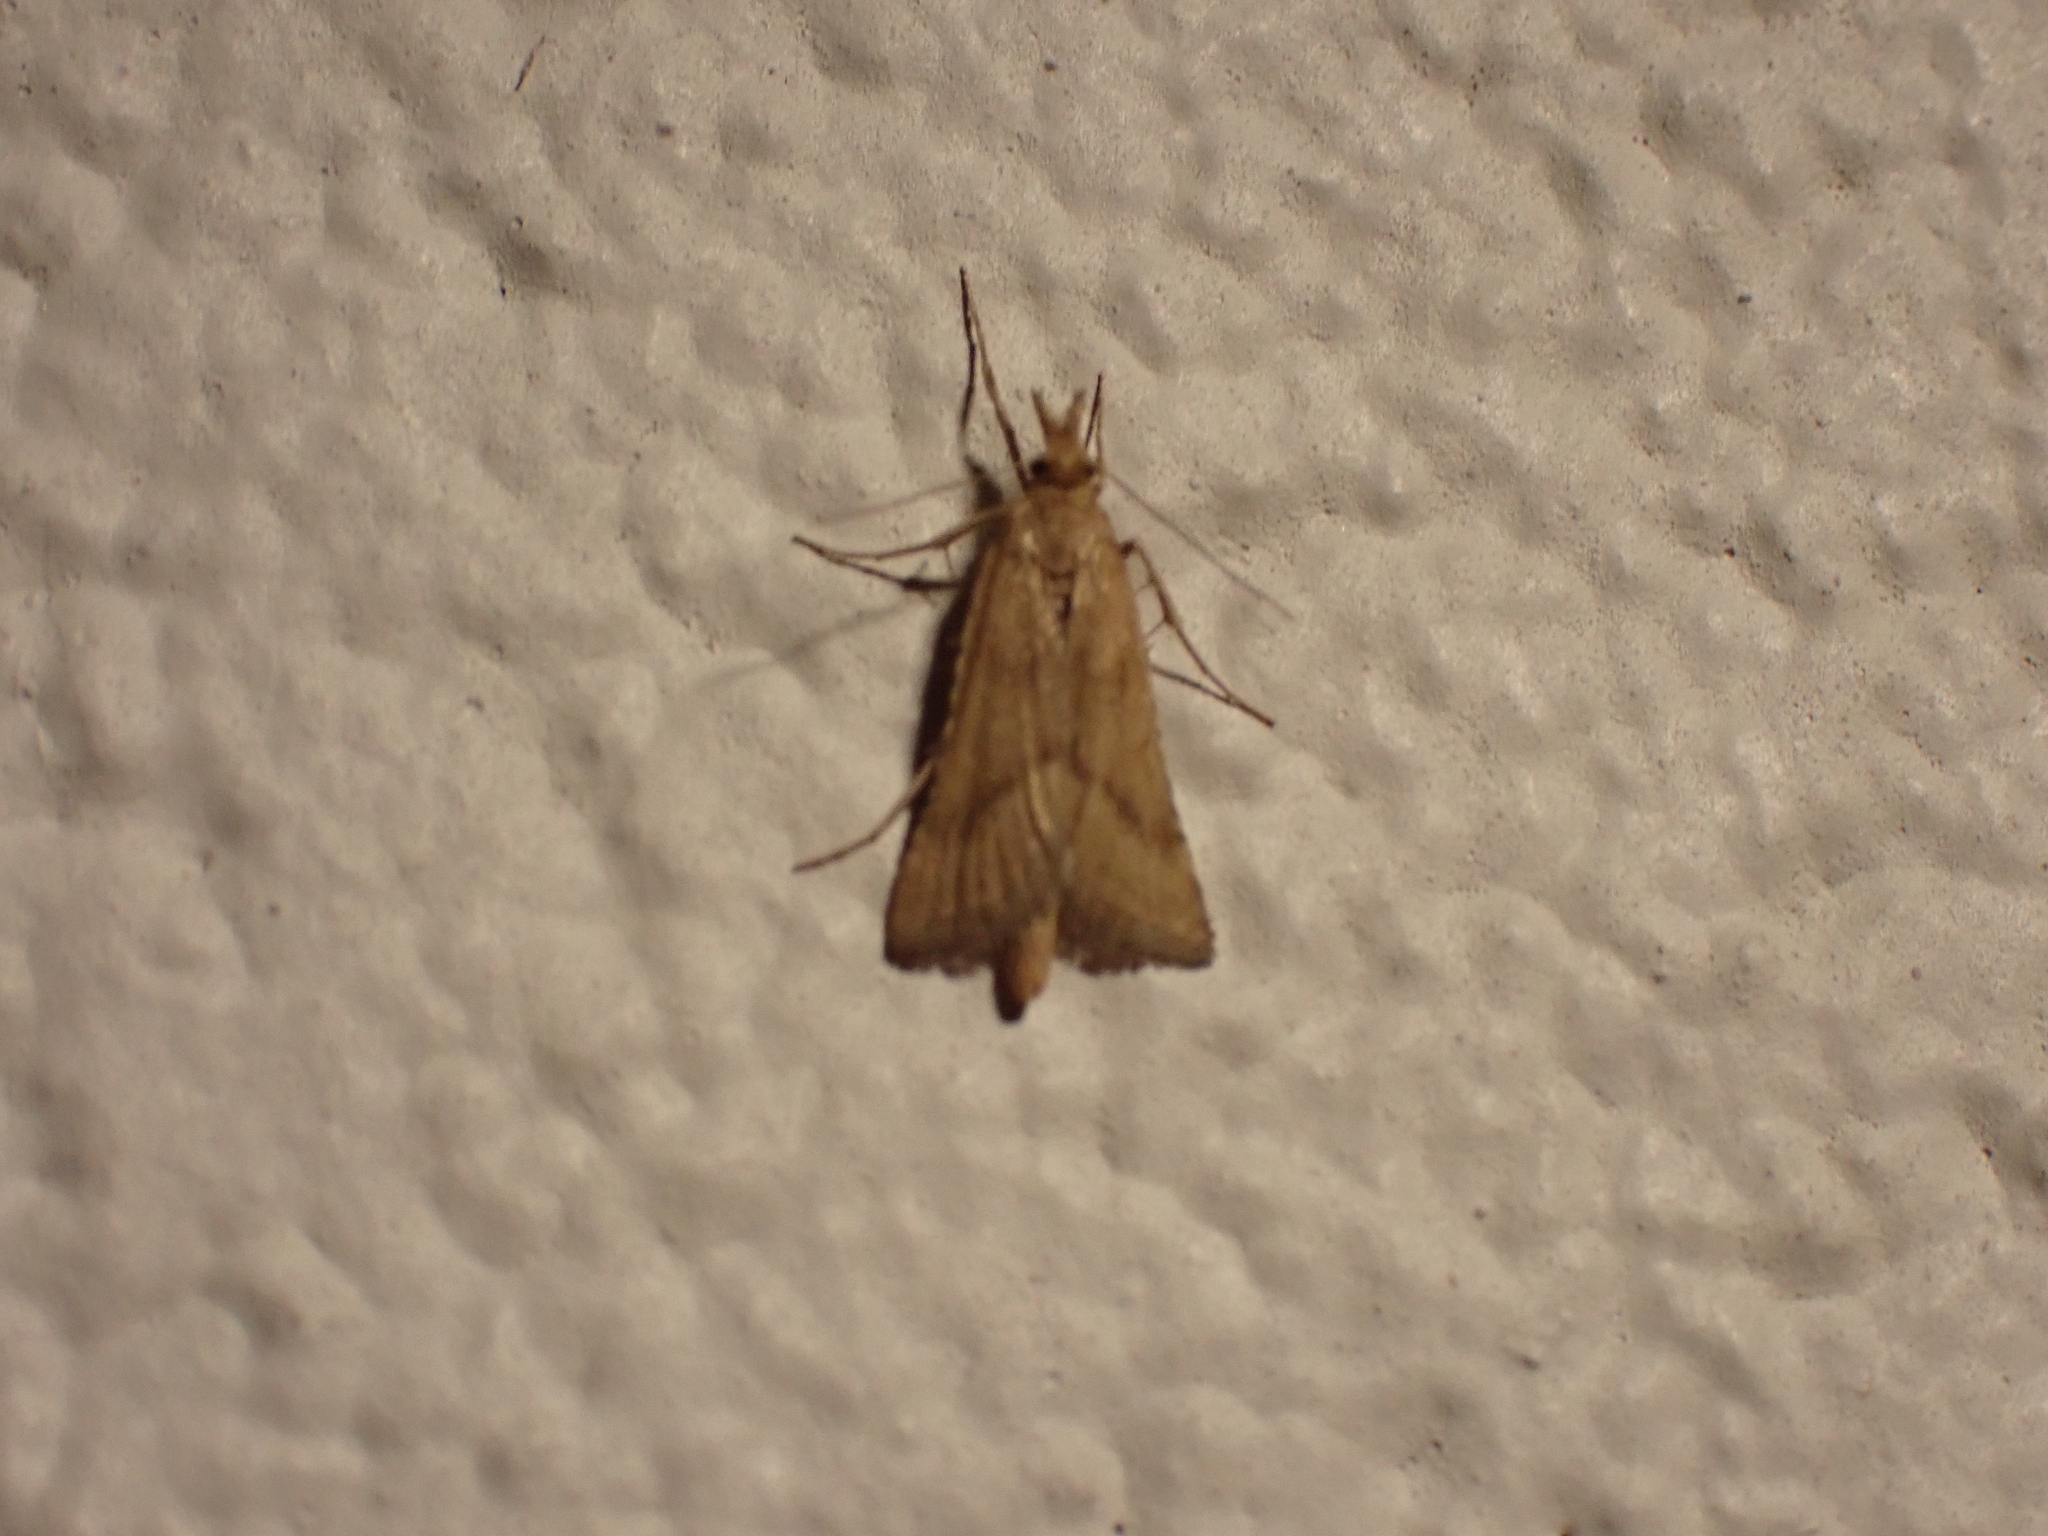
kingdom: Animalia
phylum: Arthropoda
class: Insecta
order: Lepidoptera
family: Pyralidae
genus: Synaphe
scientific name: Synaphe punctalis
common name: Long-legged tabby
